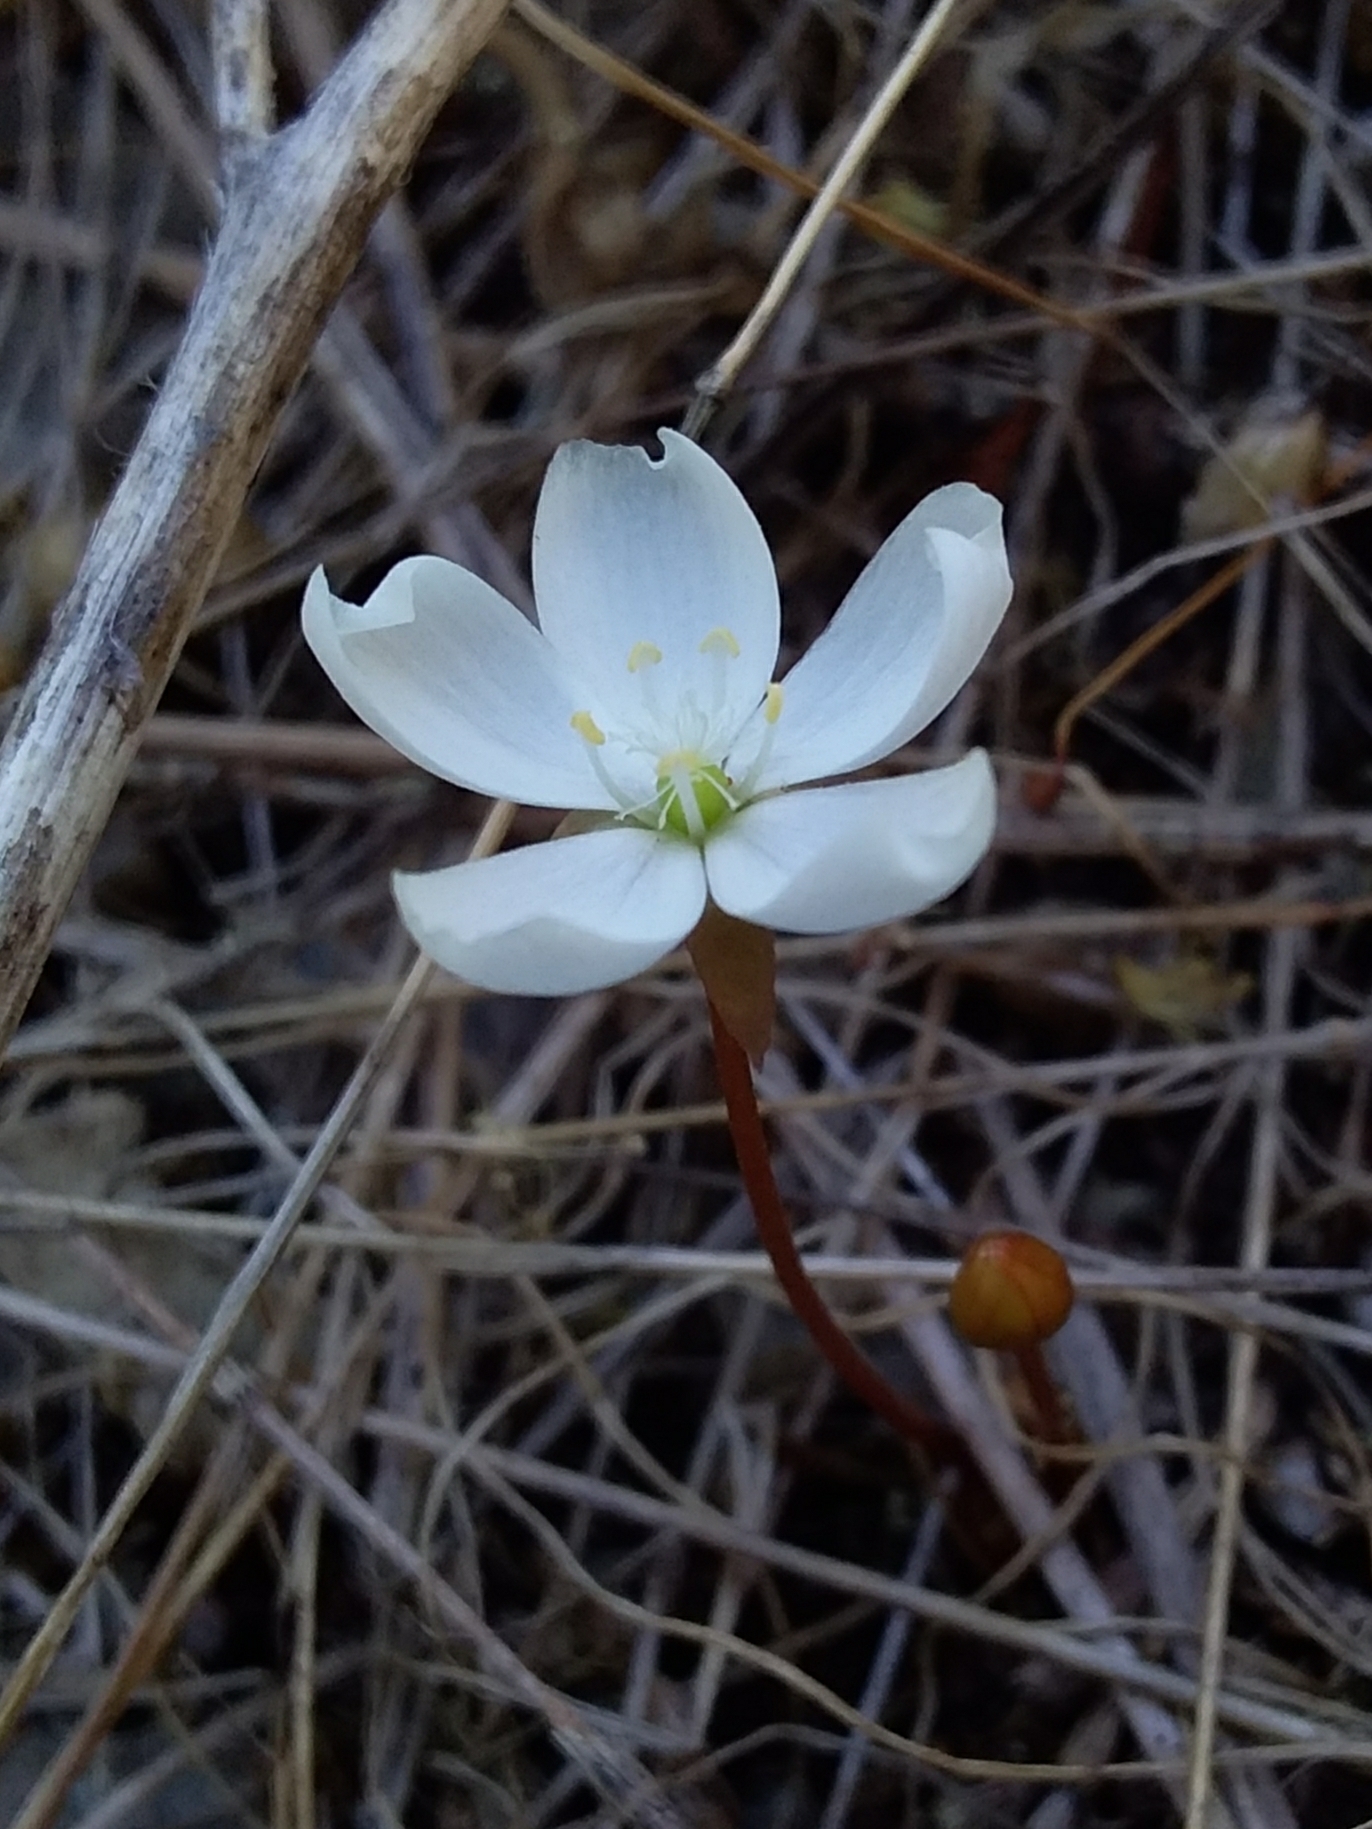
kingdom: Plantae
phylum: Tracheophyta
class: Magnoliopsida
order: Caryophyllales
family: Droseraceae
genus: Drosera
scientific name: Drosera praefolia
